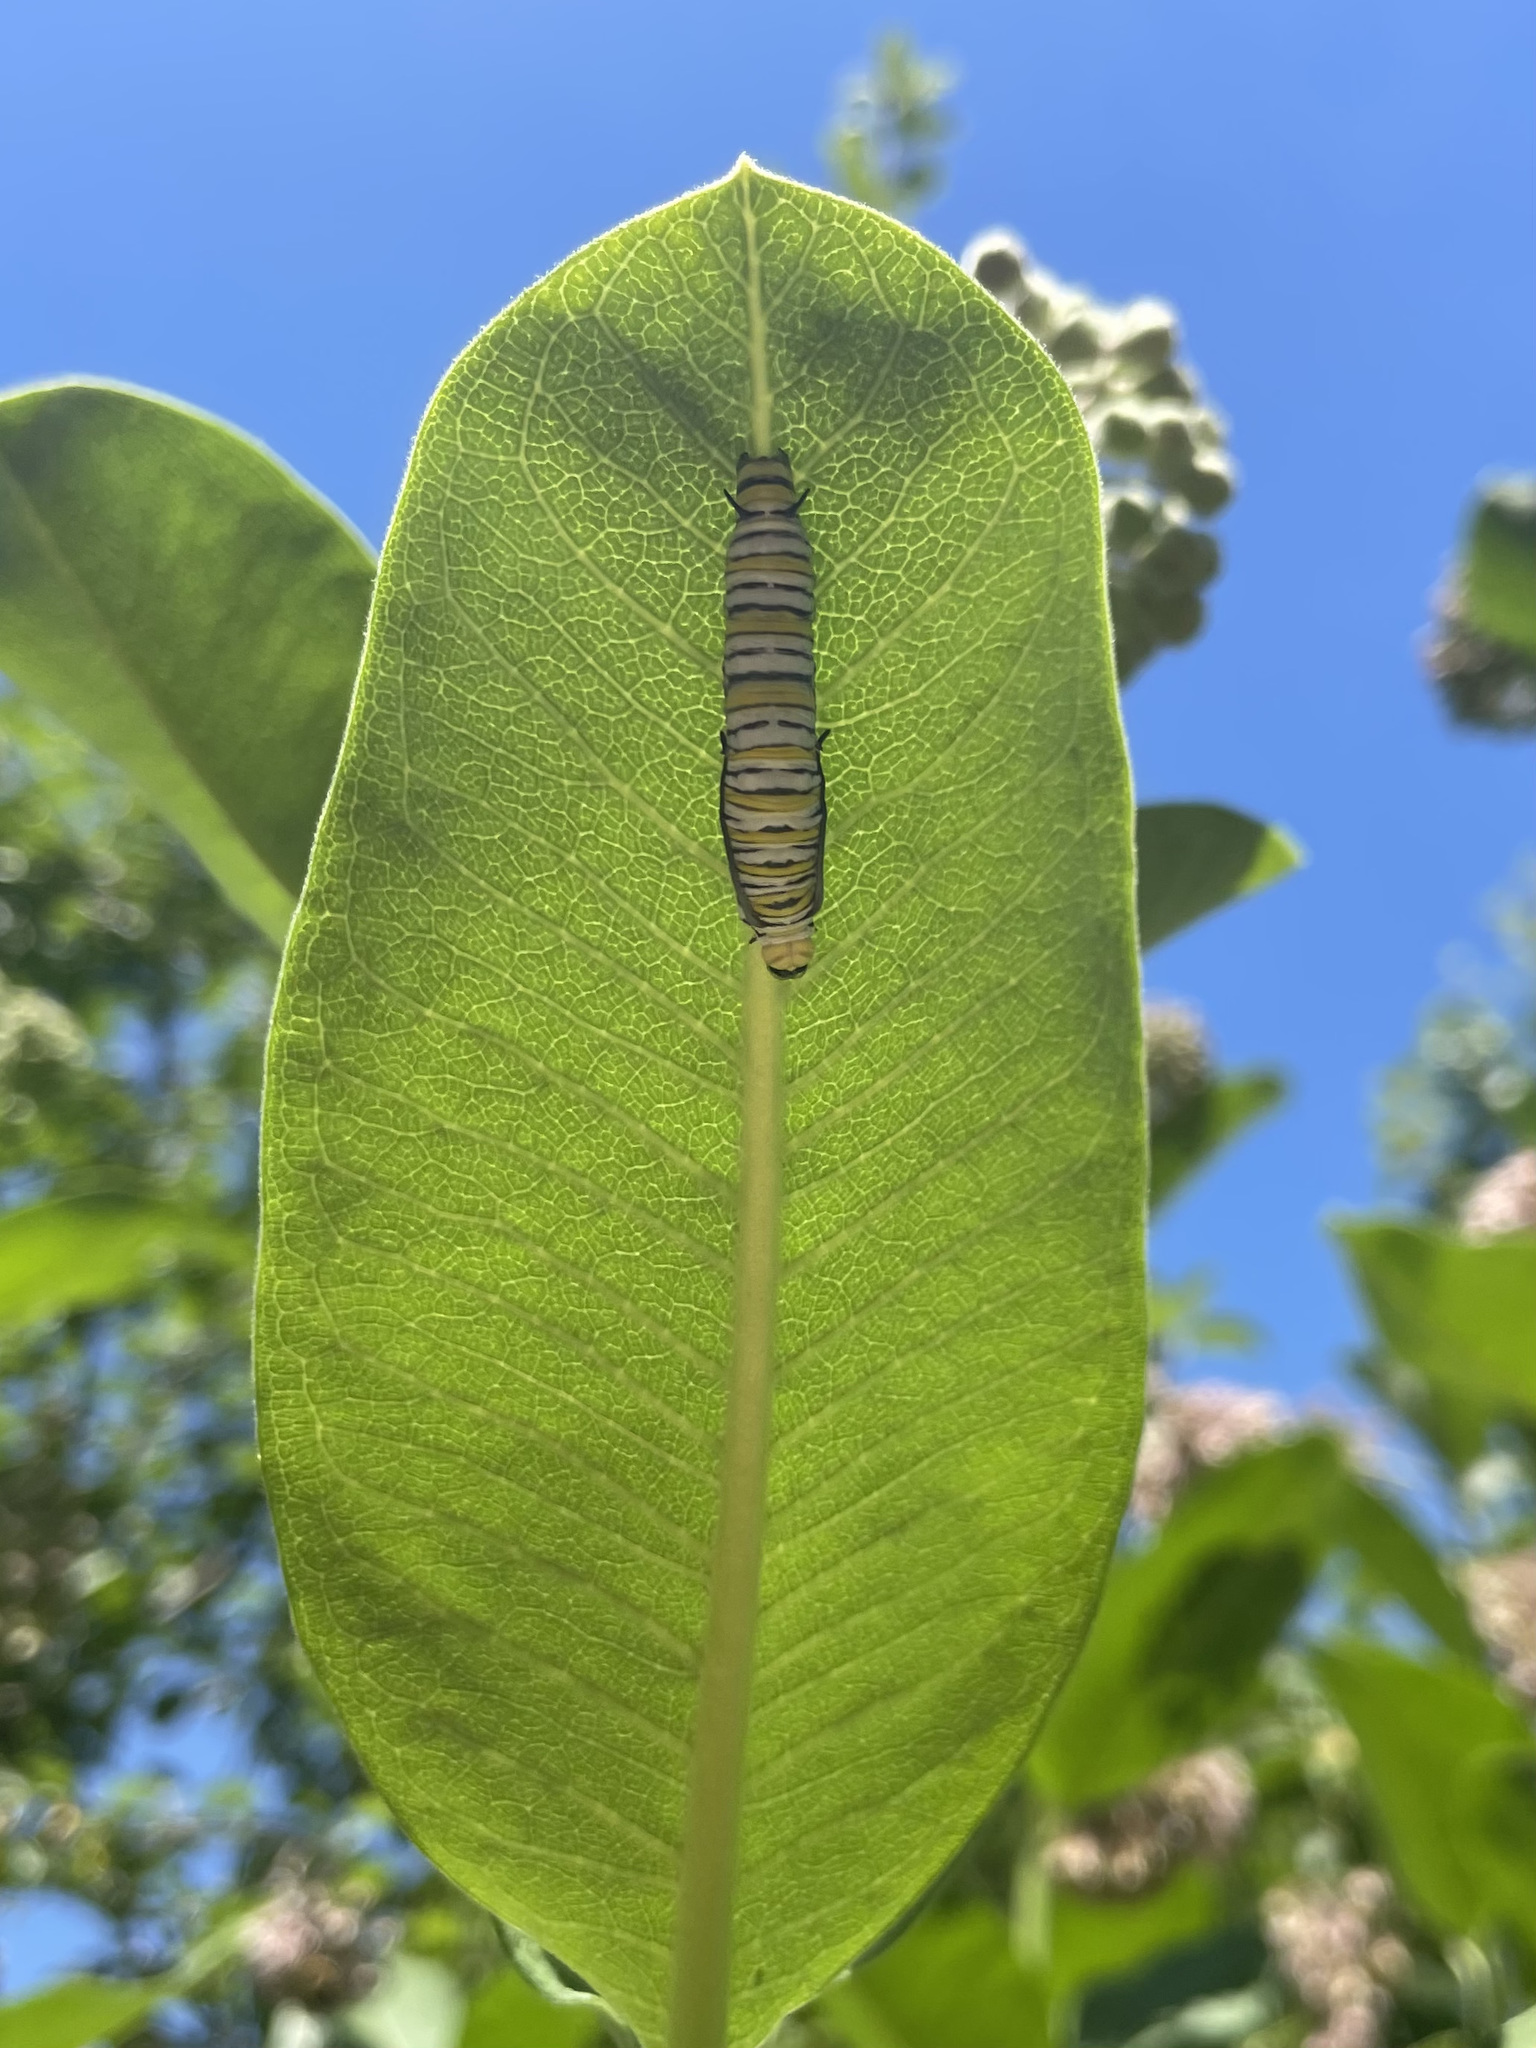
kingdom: Animalia
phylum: Arthropoda
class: Insecta
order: Lepidoptera
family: Nymphalidae
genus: Danaus
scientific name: Danaus plexippus
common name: Monarch
